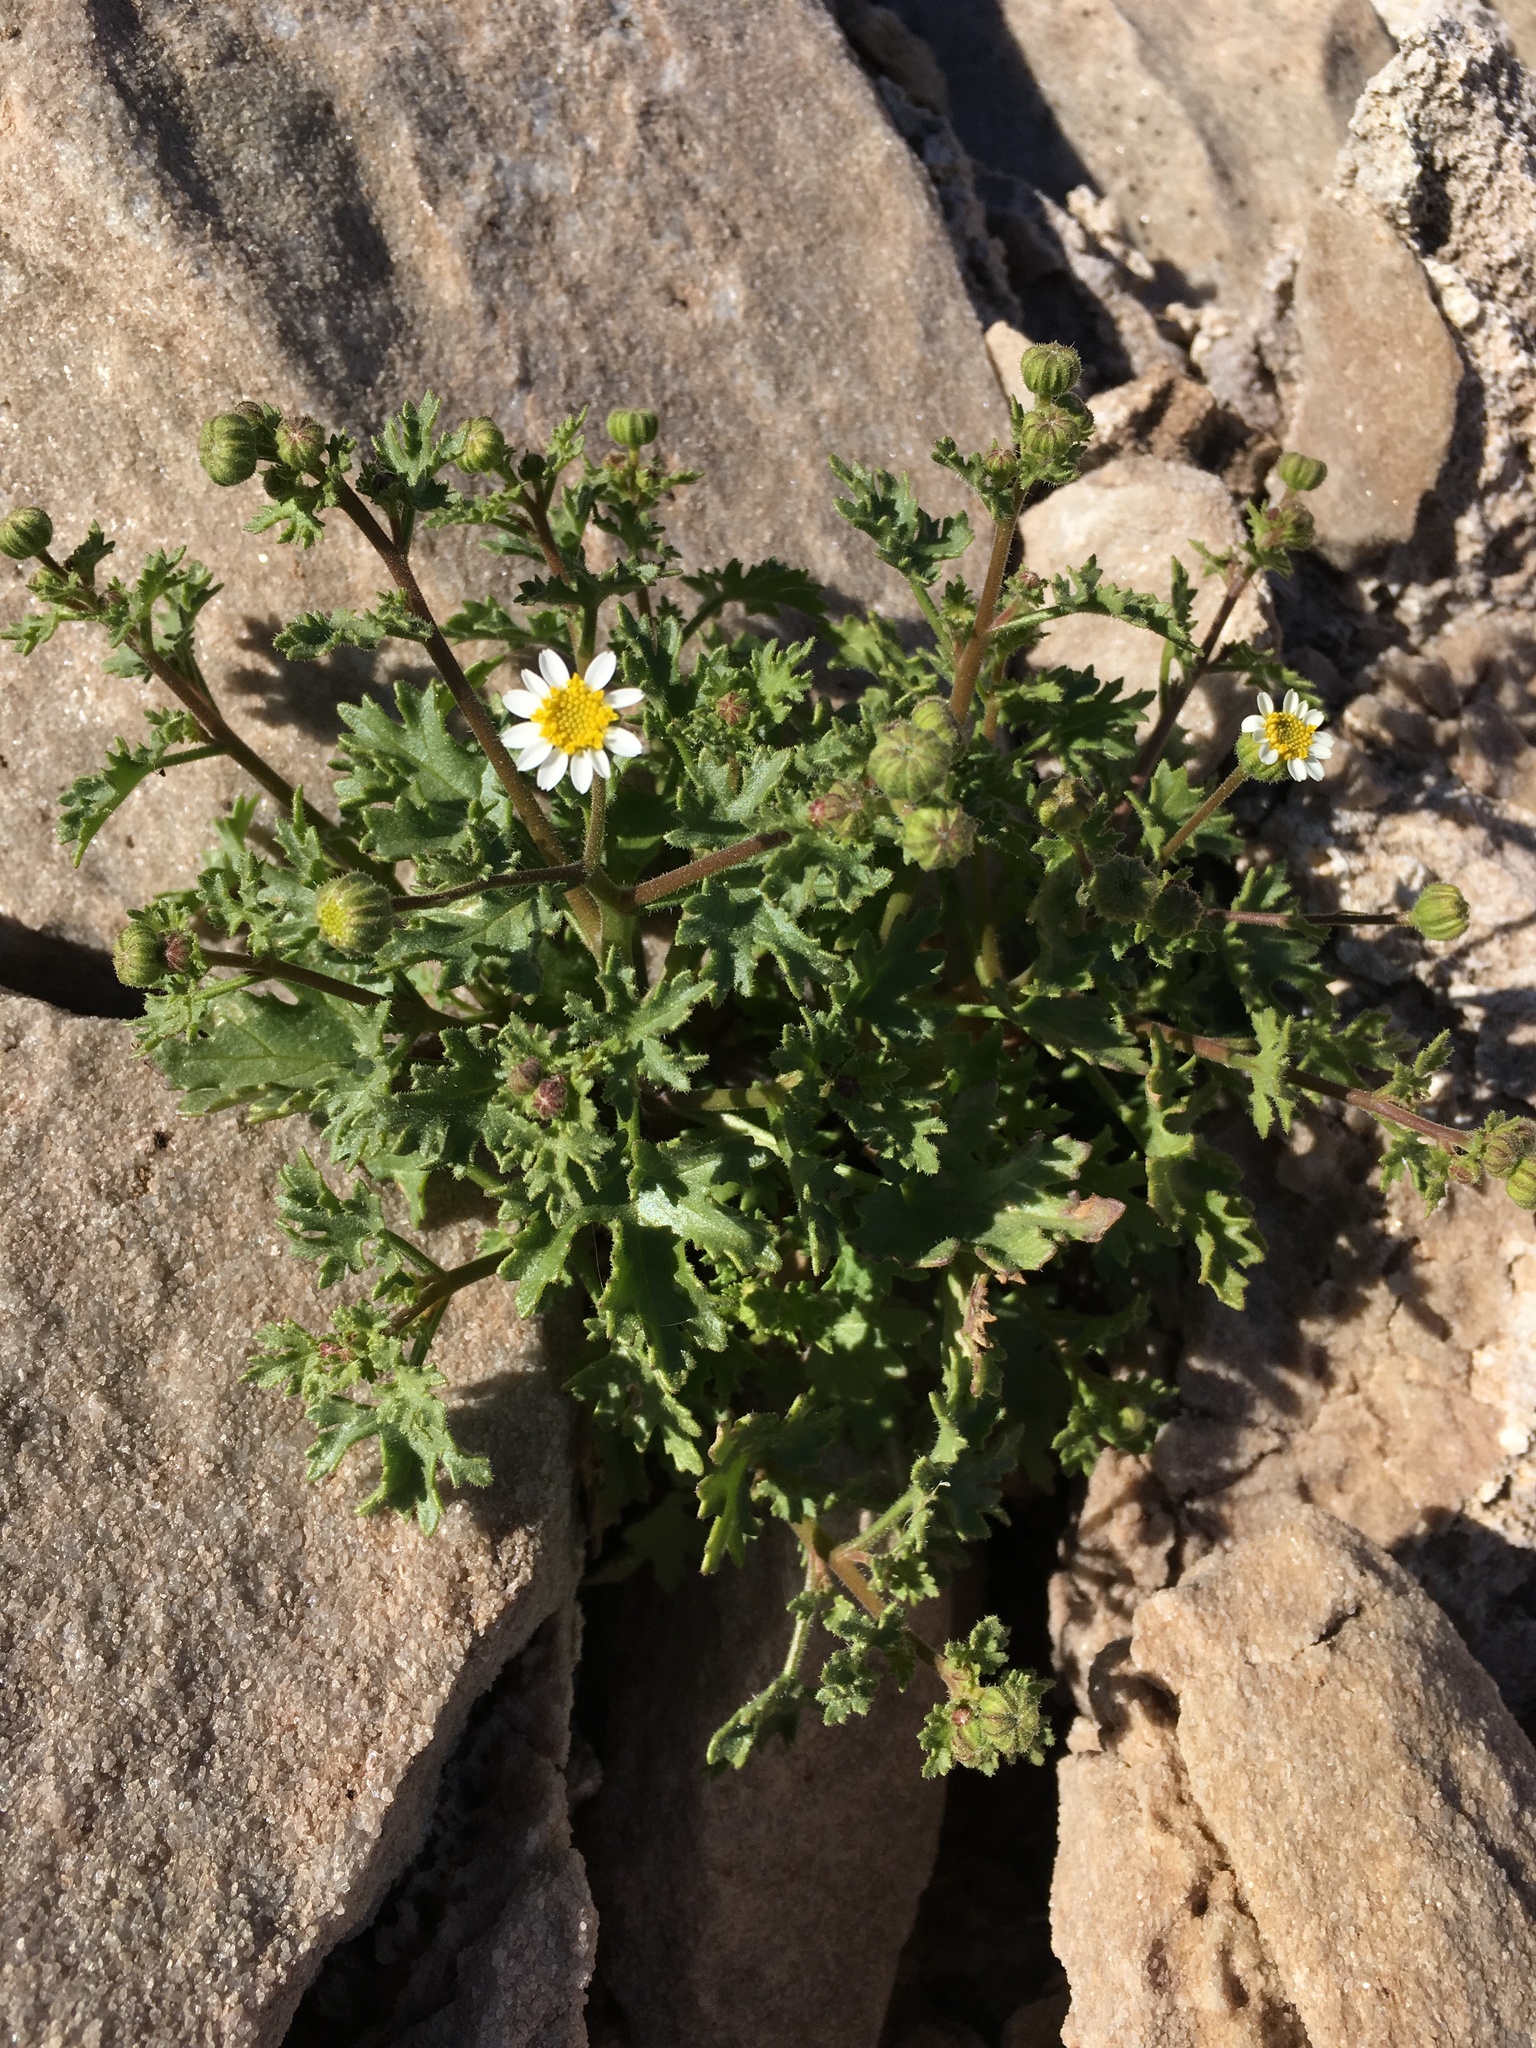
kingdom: Plantae
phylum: Tracheophyta
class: Magnoliopsida
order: Asterales
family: Asteraceae
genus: Laphamia
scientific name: Laphamia emoryi
